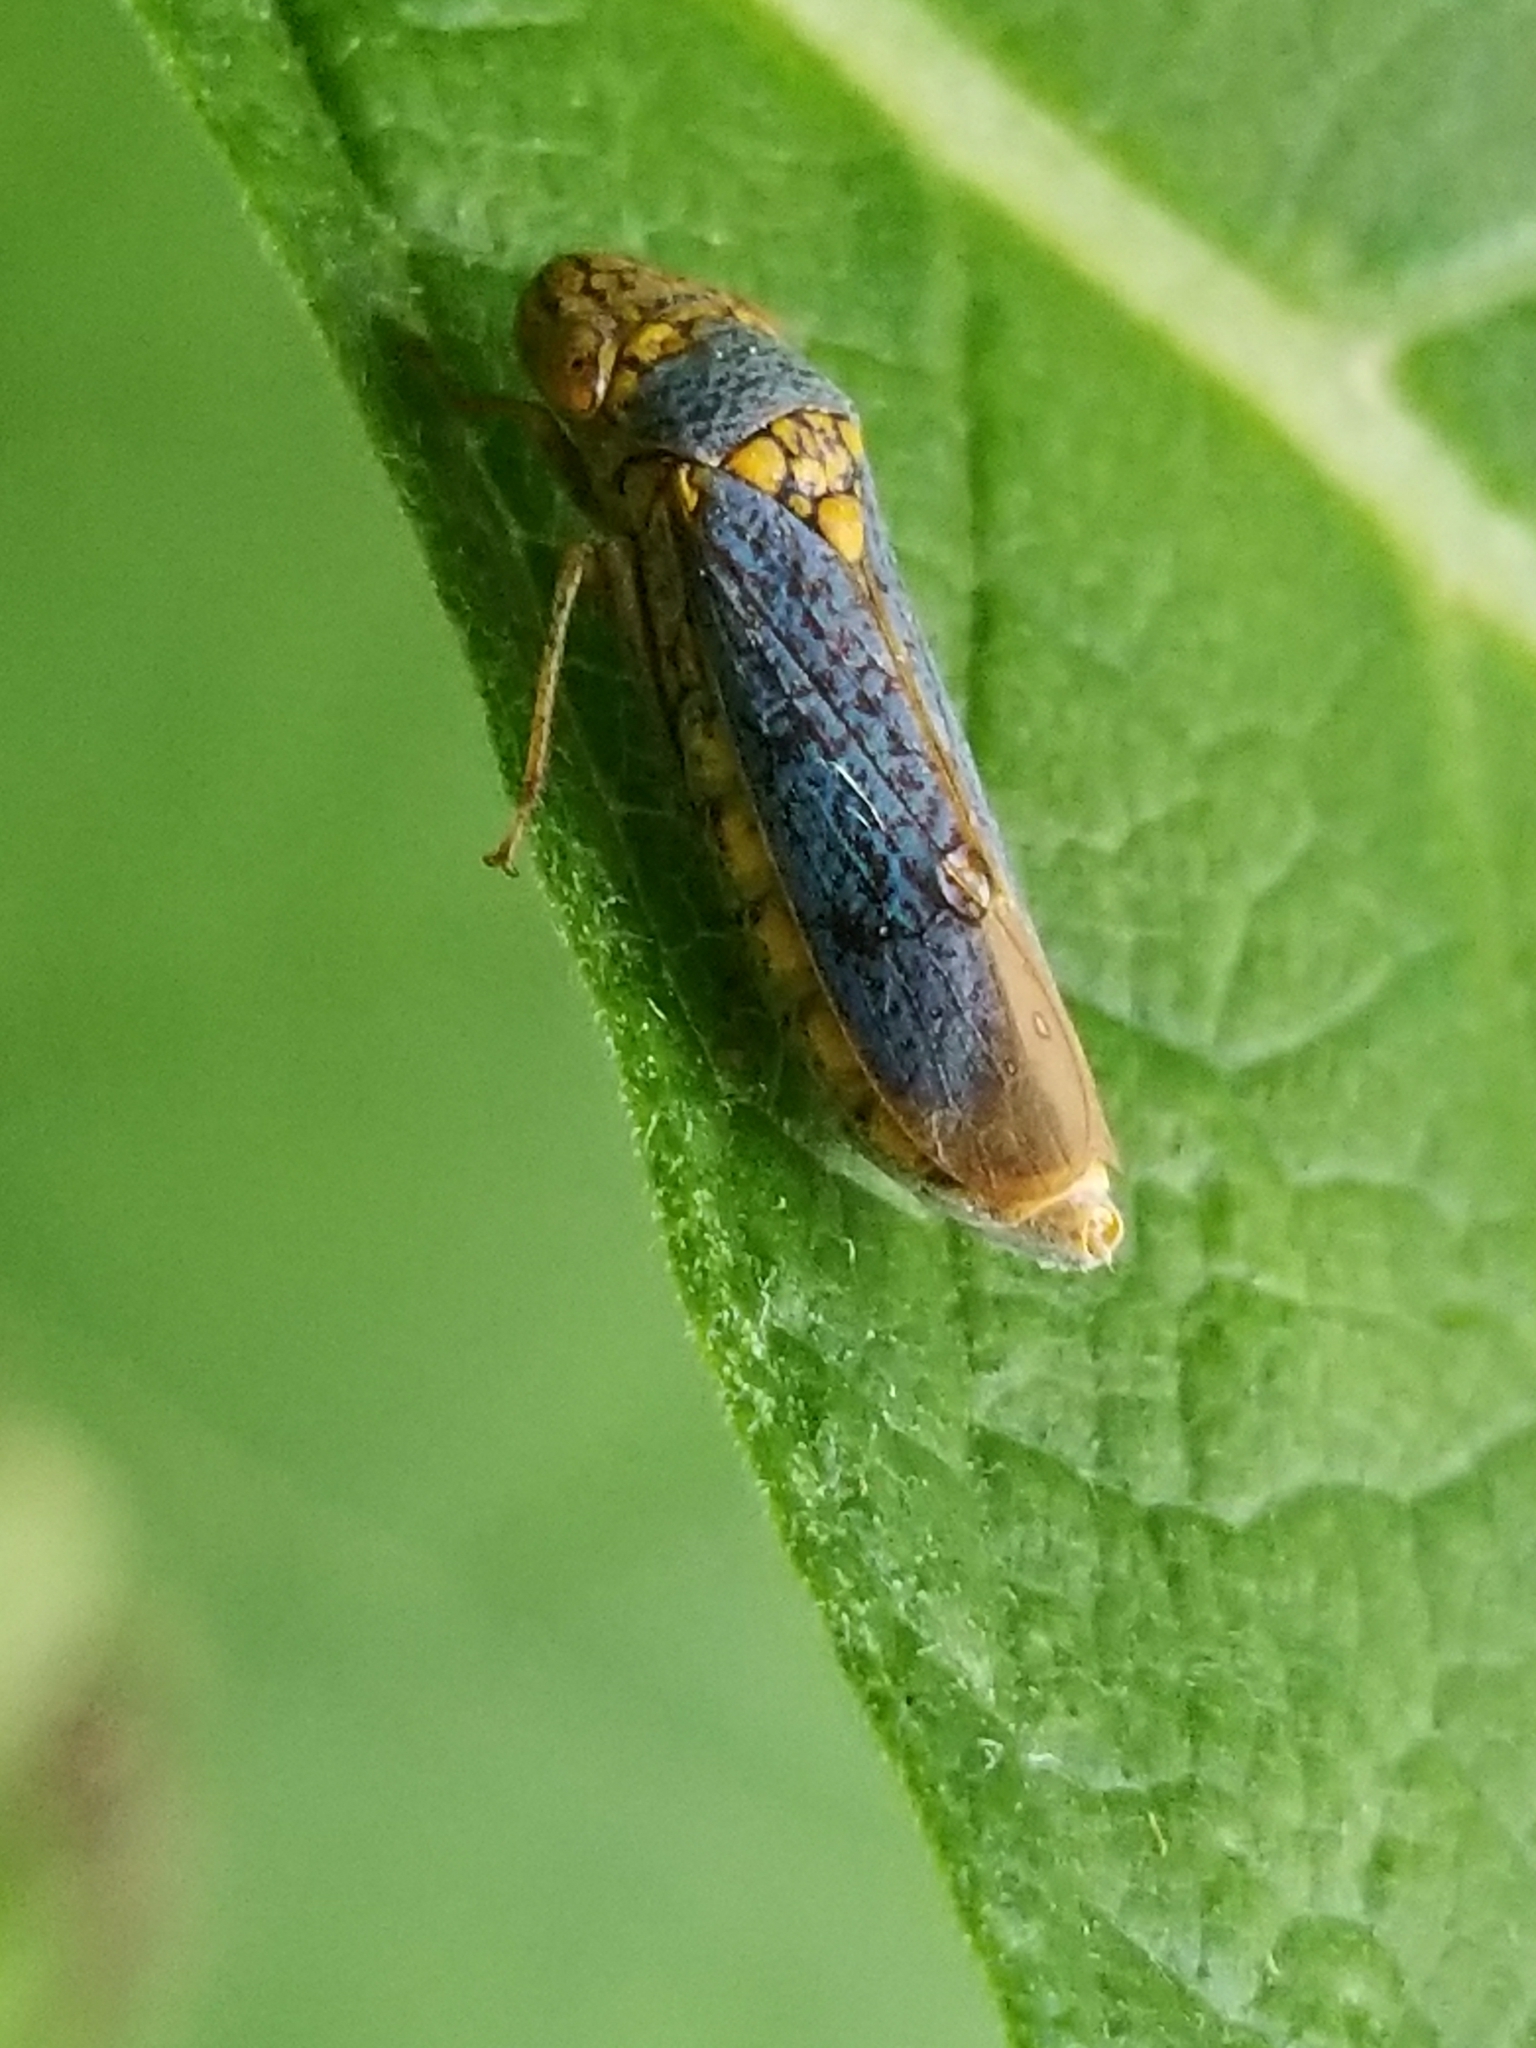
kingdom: Animalia
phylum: Arthropoda
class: Insecta
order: Hemiptera
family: Cicadellidae
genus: Oncometopia
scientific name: Oncometopia orbona
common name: Broad-headed sharpshooter
